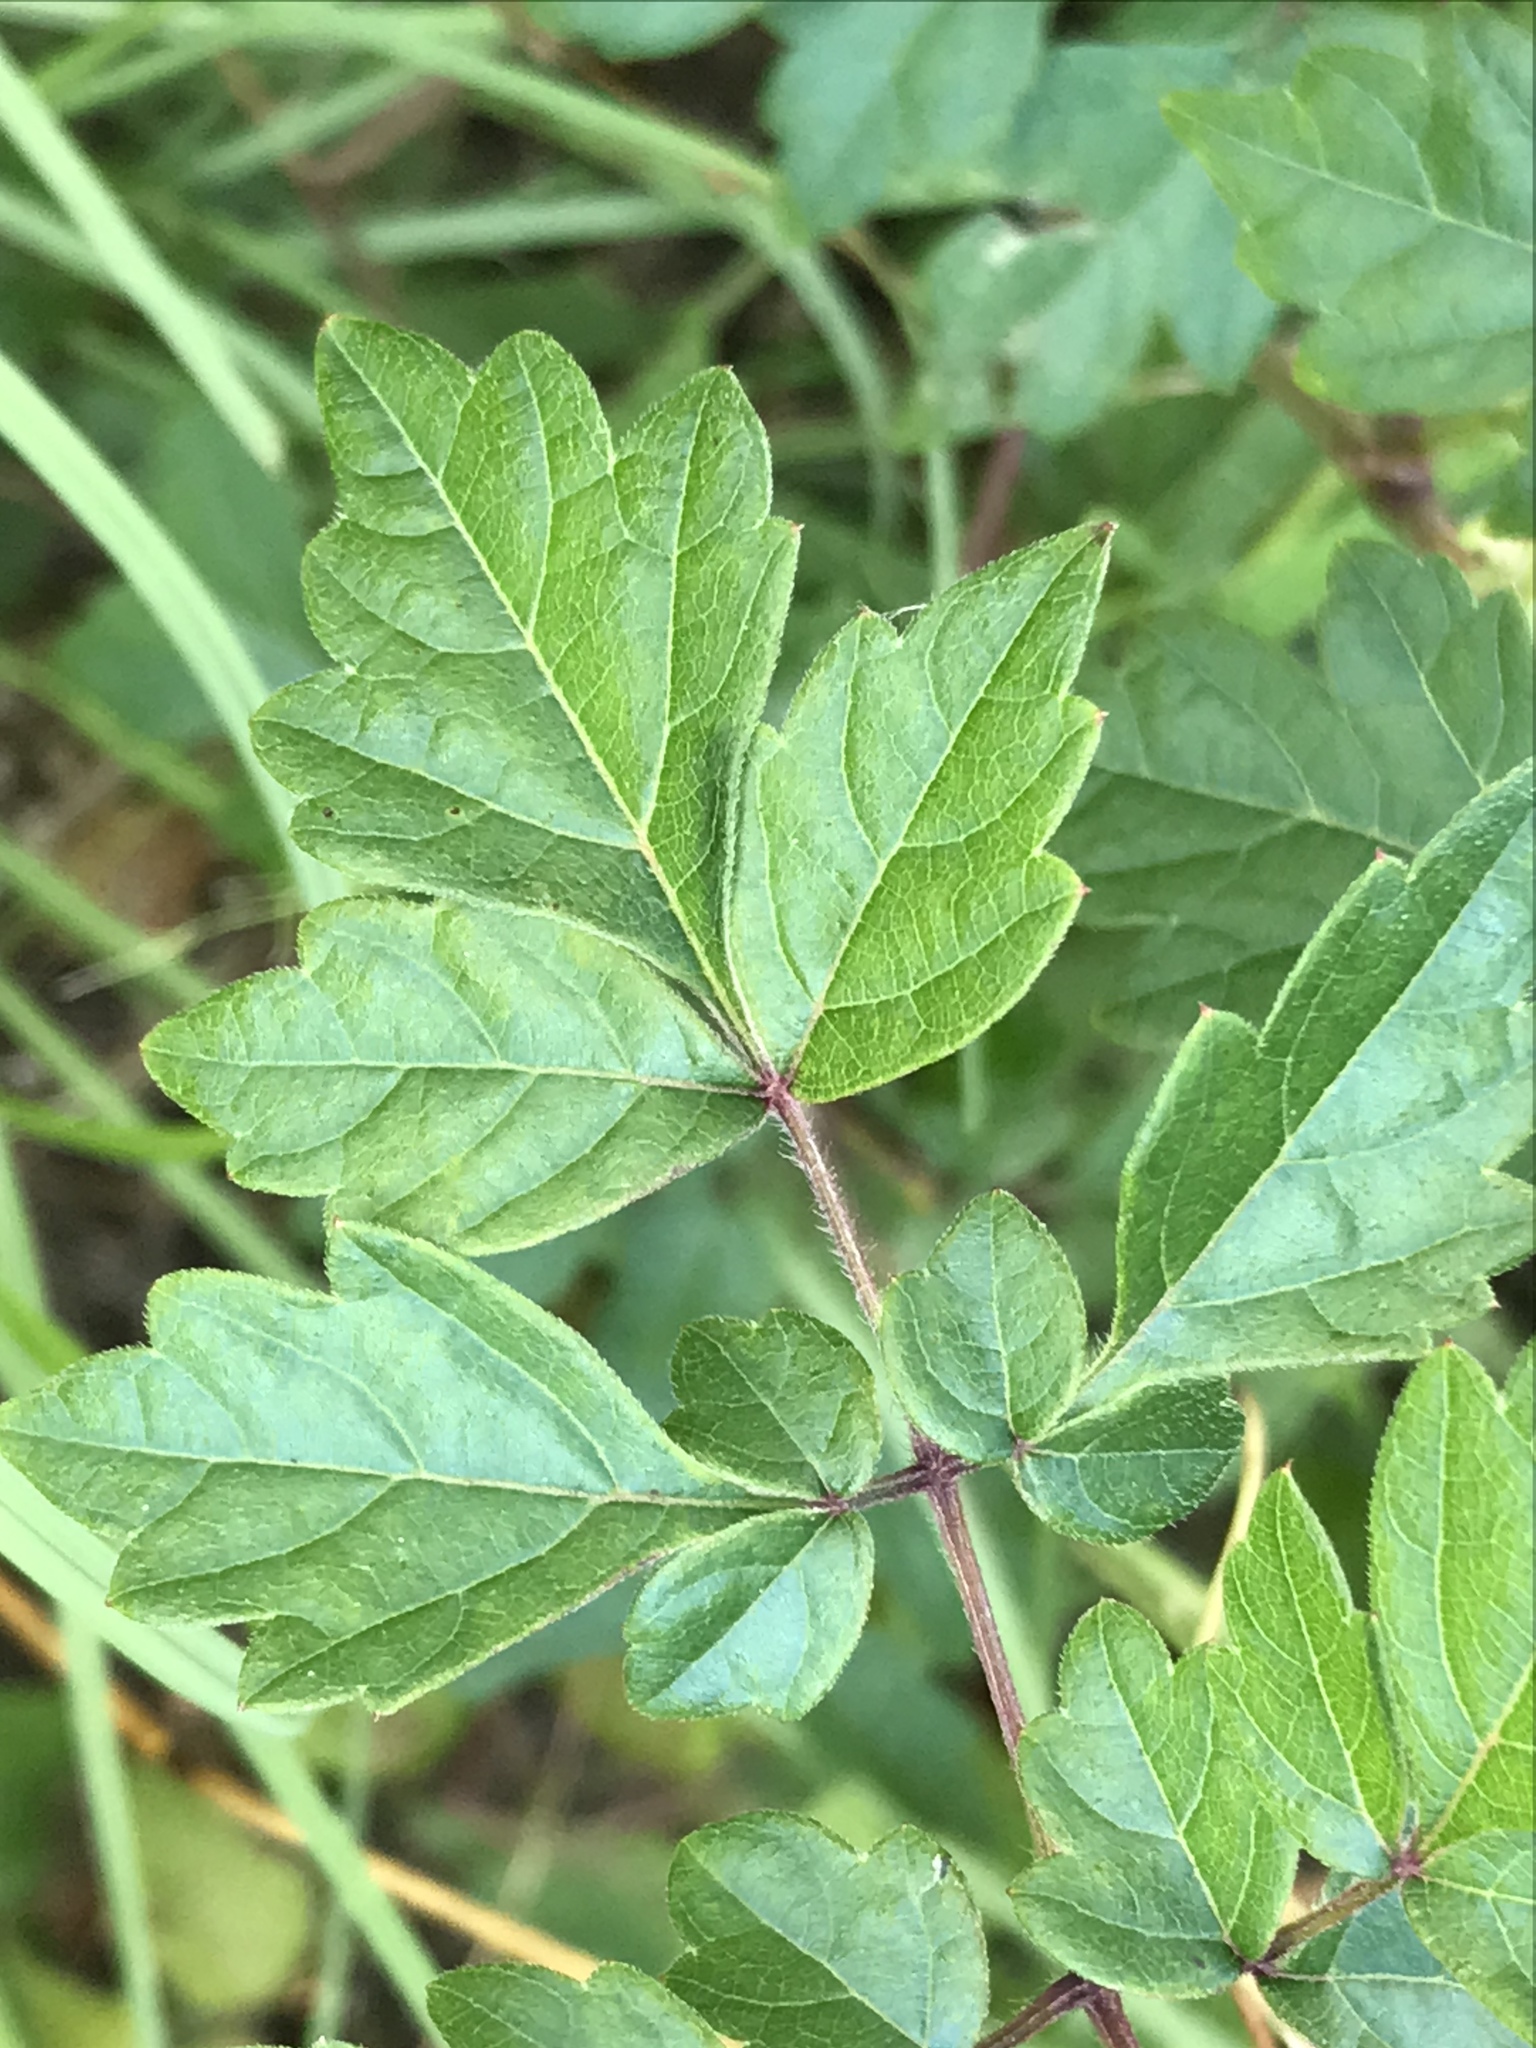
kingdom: Plantae
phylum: Tracheophyta
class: Magnoliopsida
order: Vitales
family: Vitaceae
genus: Nekemias
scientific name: Nekemias arborea
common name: Peppervine
